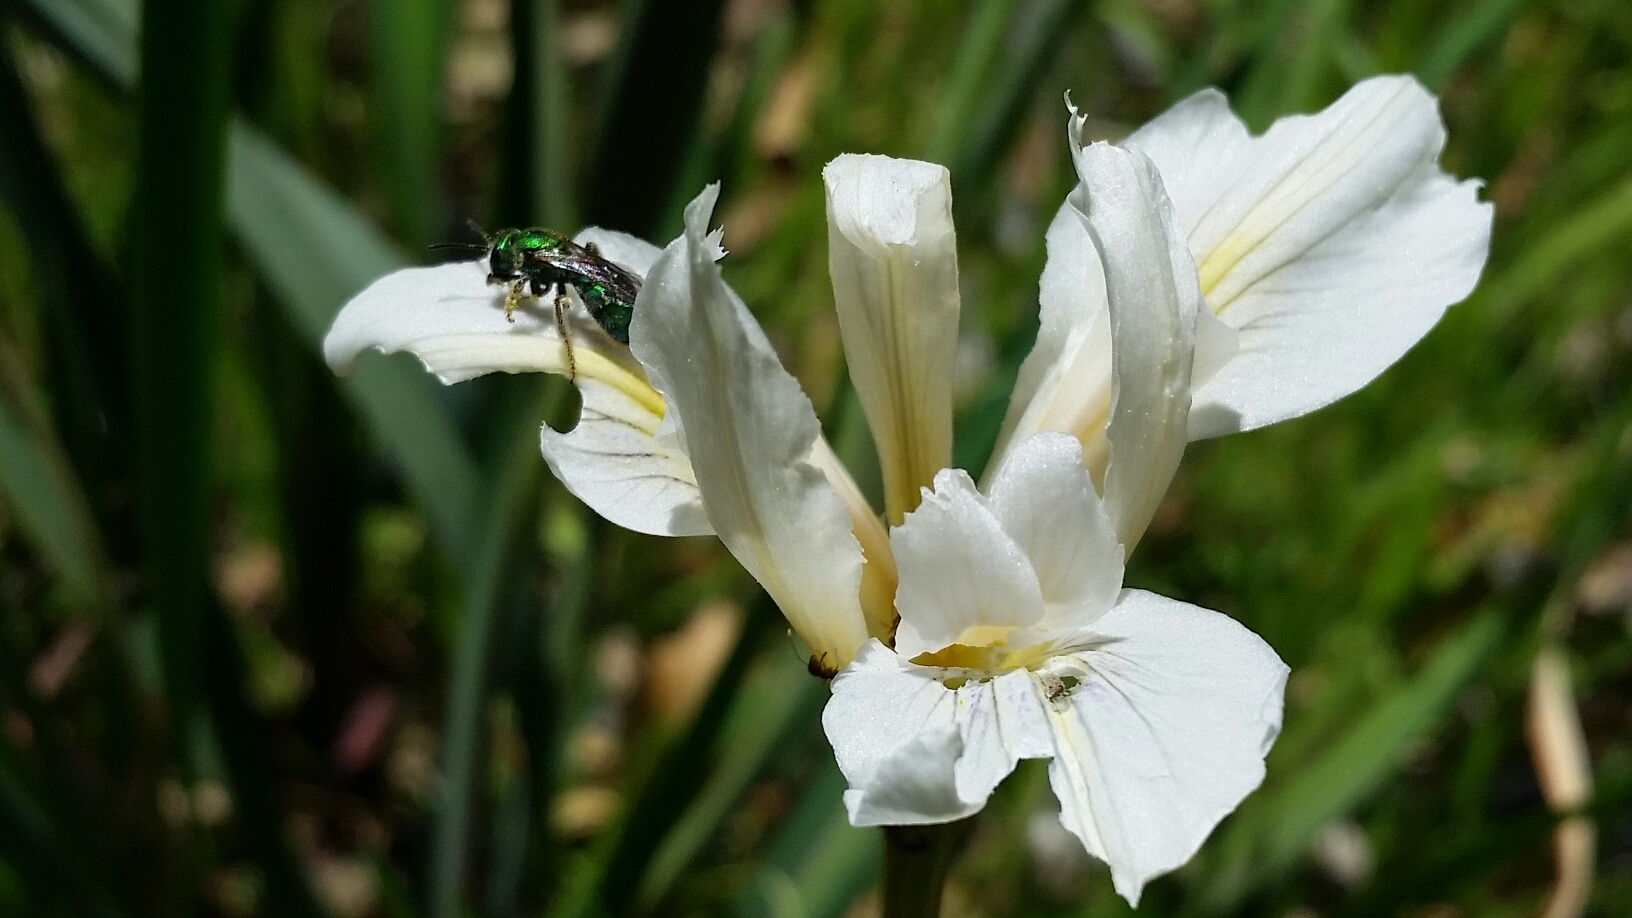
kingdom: Plantae
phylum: Tracheophyta
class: Liliopsida
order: Asparagales
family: Iridaceae
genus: Iris
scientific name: Iris fernaldii
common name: Fernald's iris
